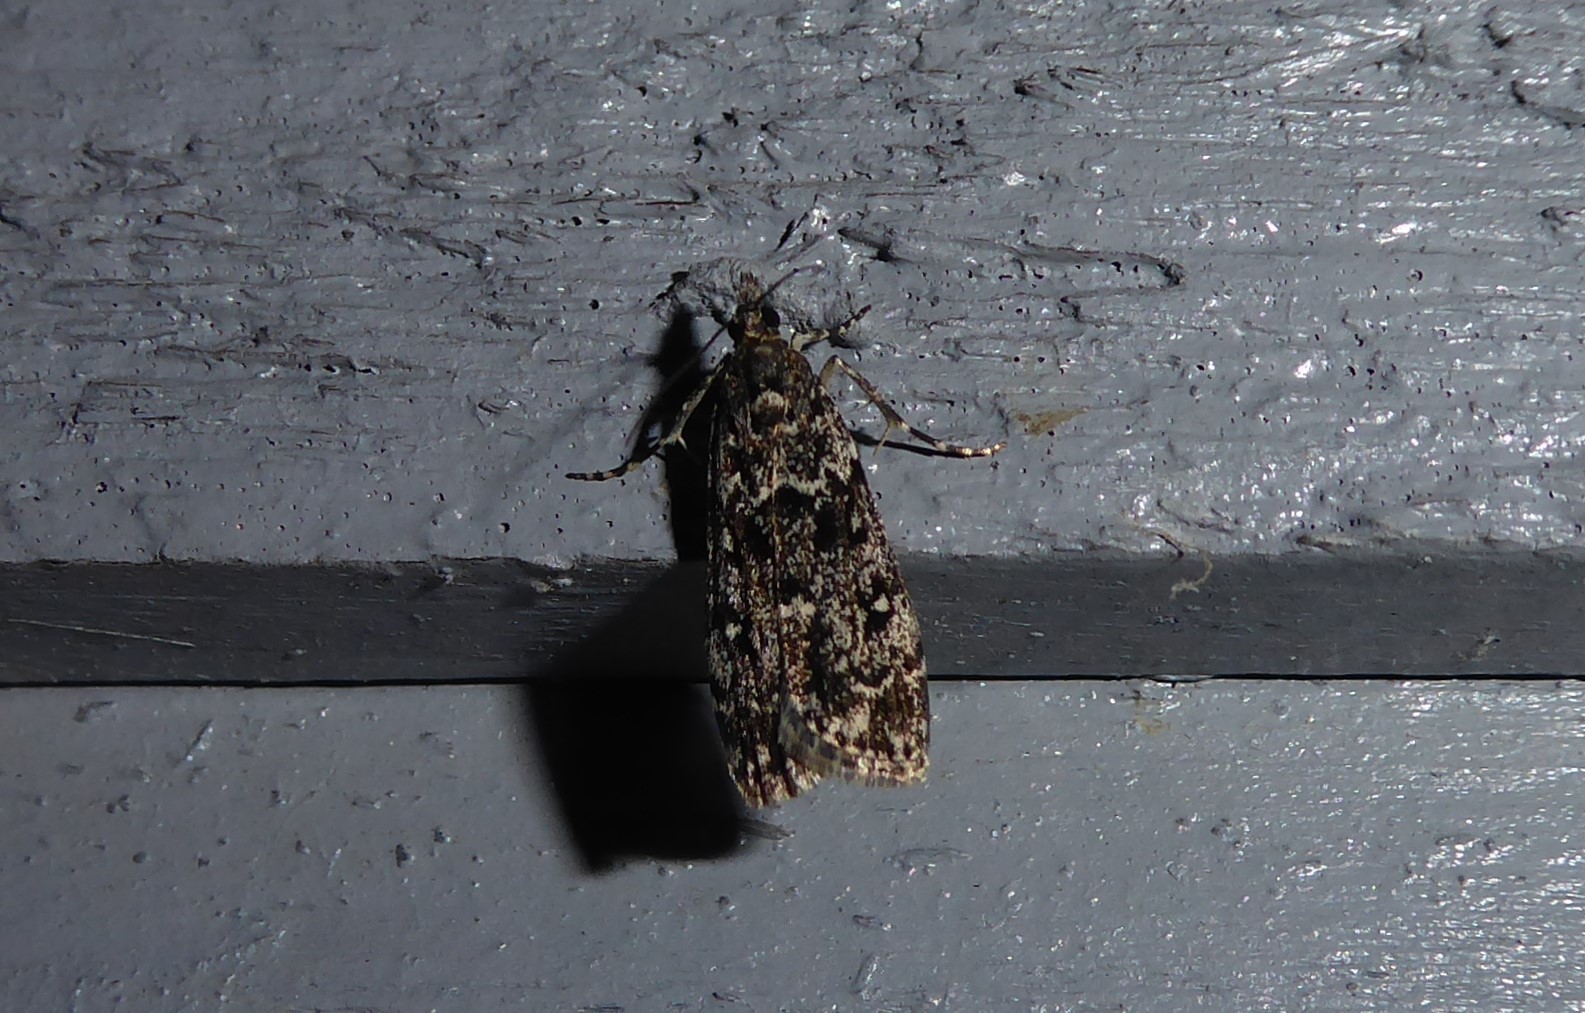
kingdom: Animalia
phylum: Arthropoda
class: Insecta
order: Lepidoptera
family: Crambidae
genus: Eudonia
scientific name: Eudonia philerga
